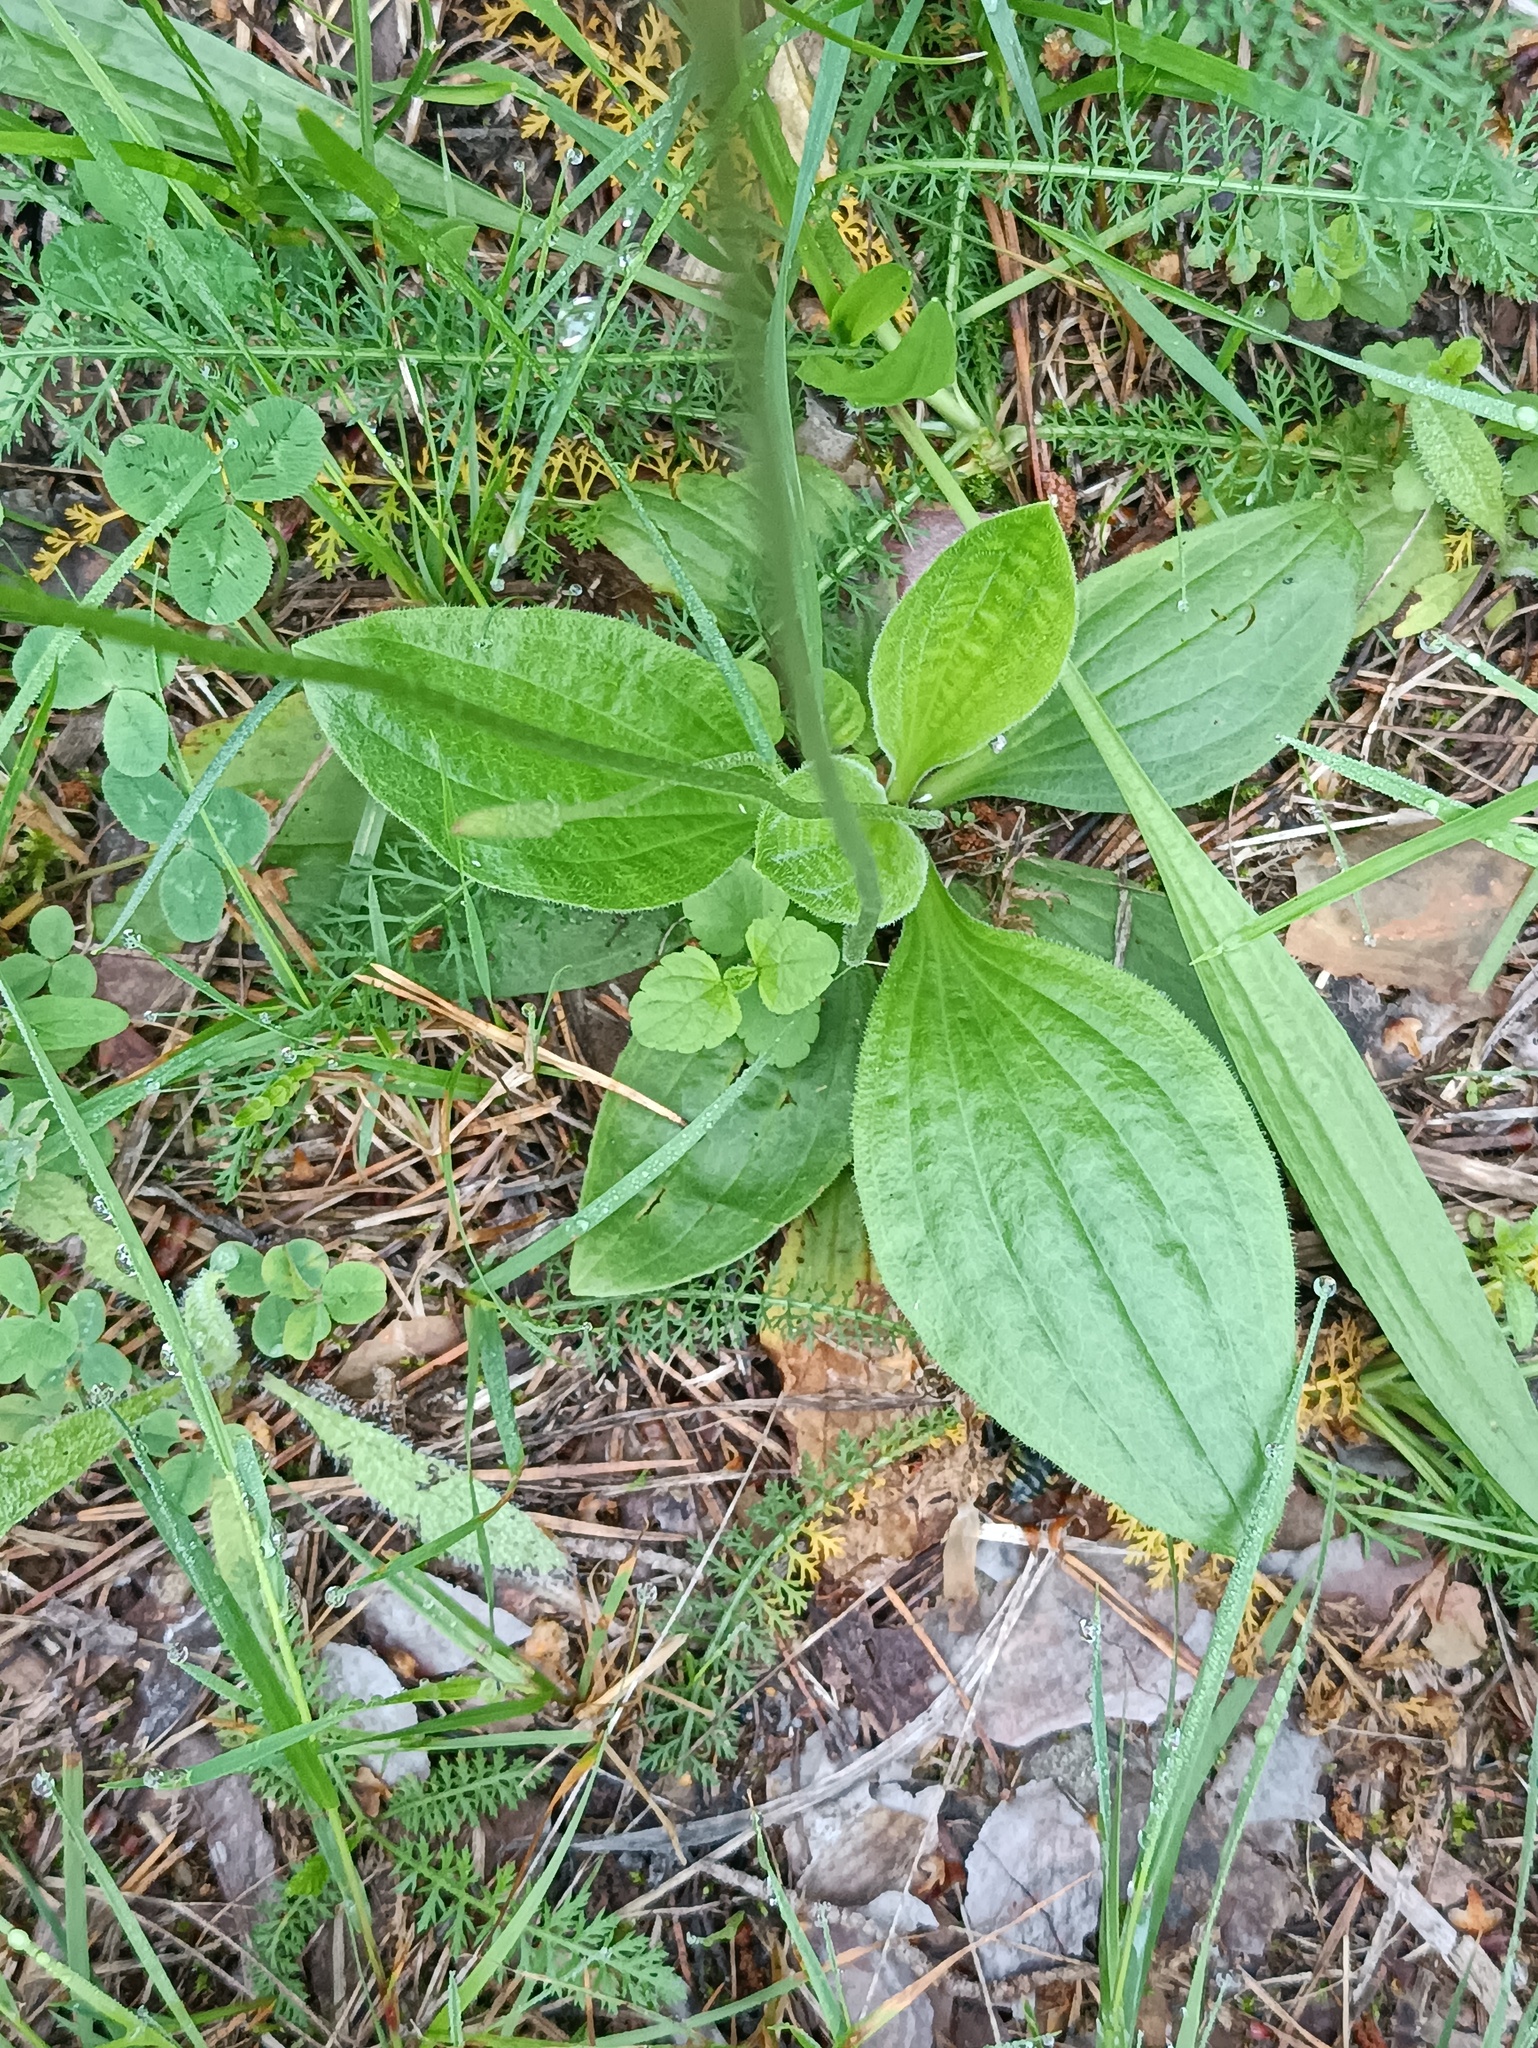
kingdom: Plantae
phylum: Tracheophyta
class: Magnoliopsida
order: Lamiales
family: Plantaginaceae
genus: Plantago
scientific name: Plantago media
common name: Hoary plantain
